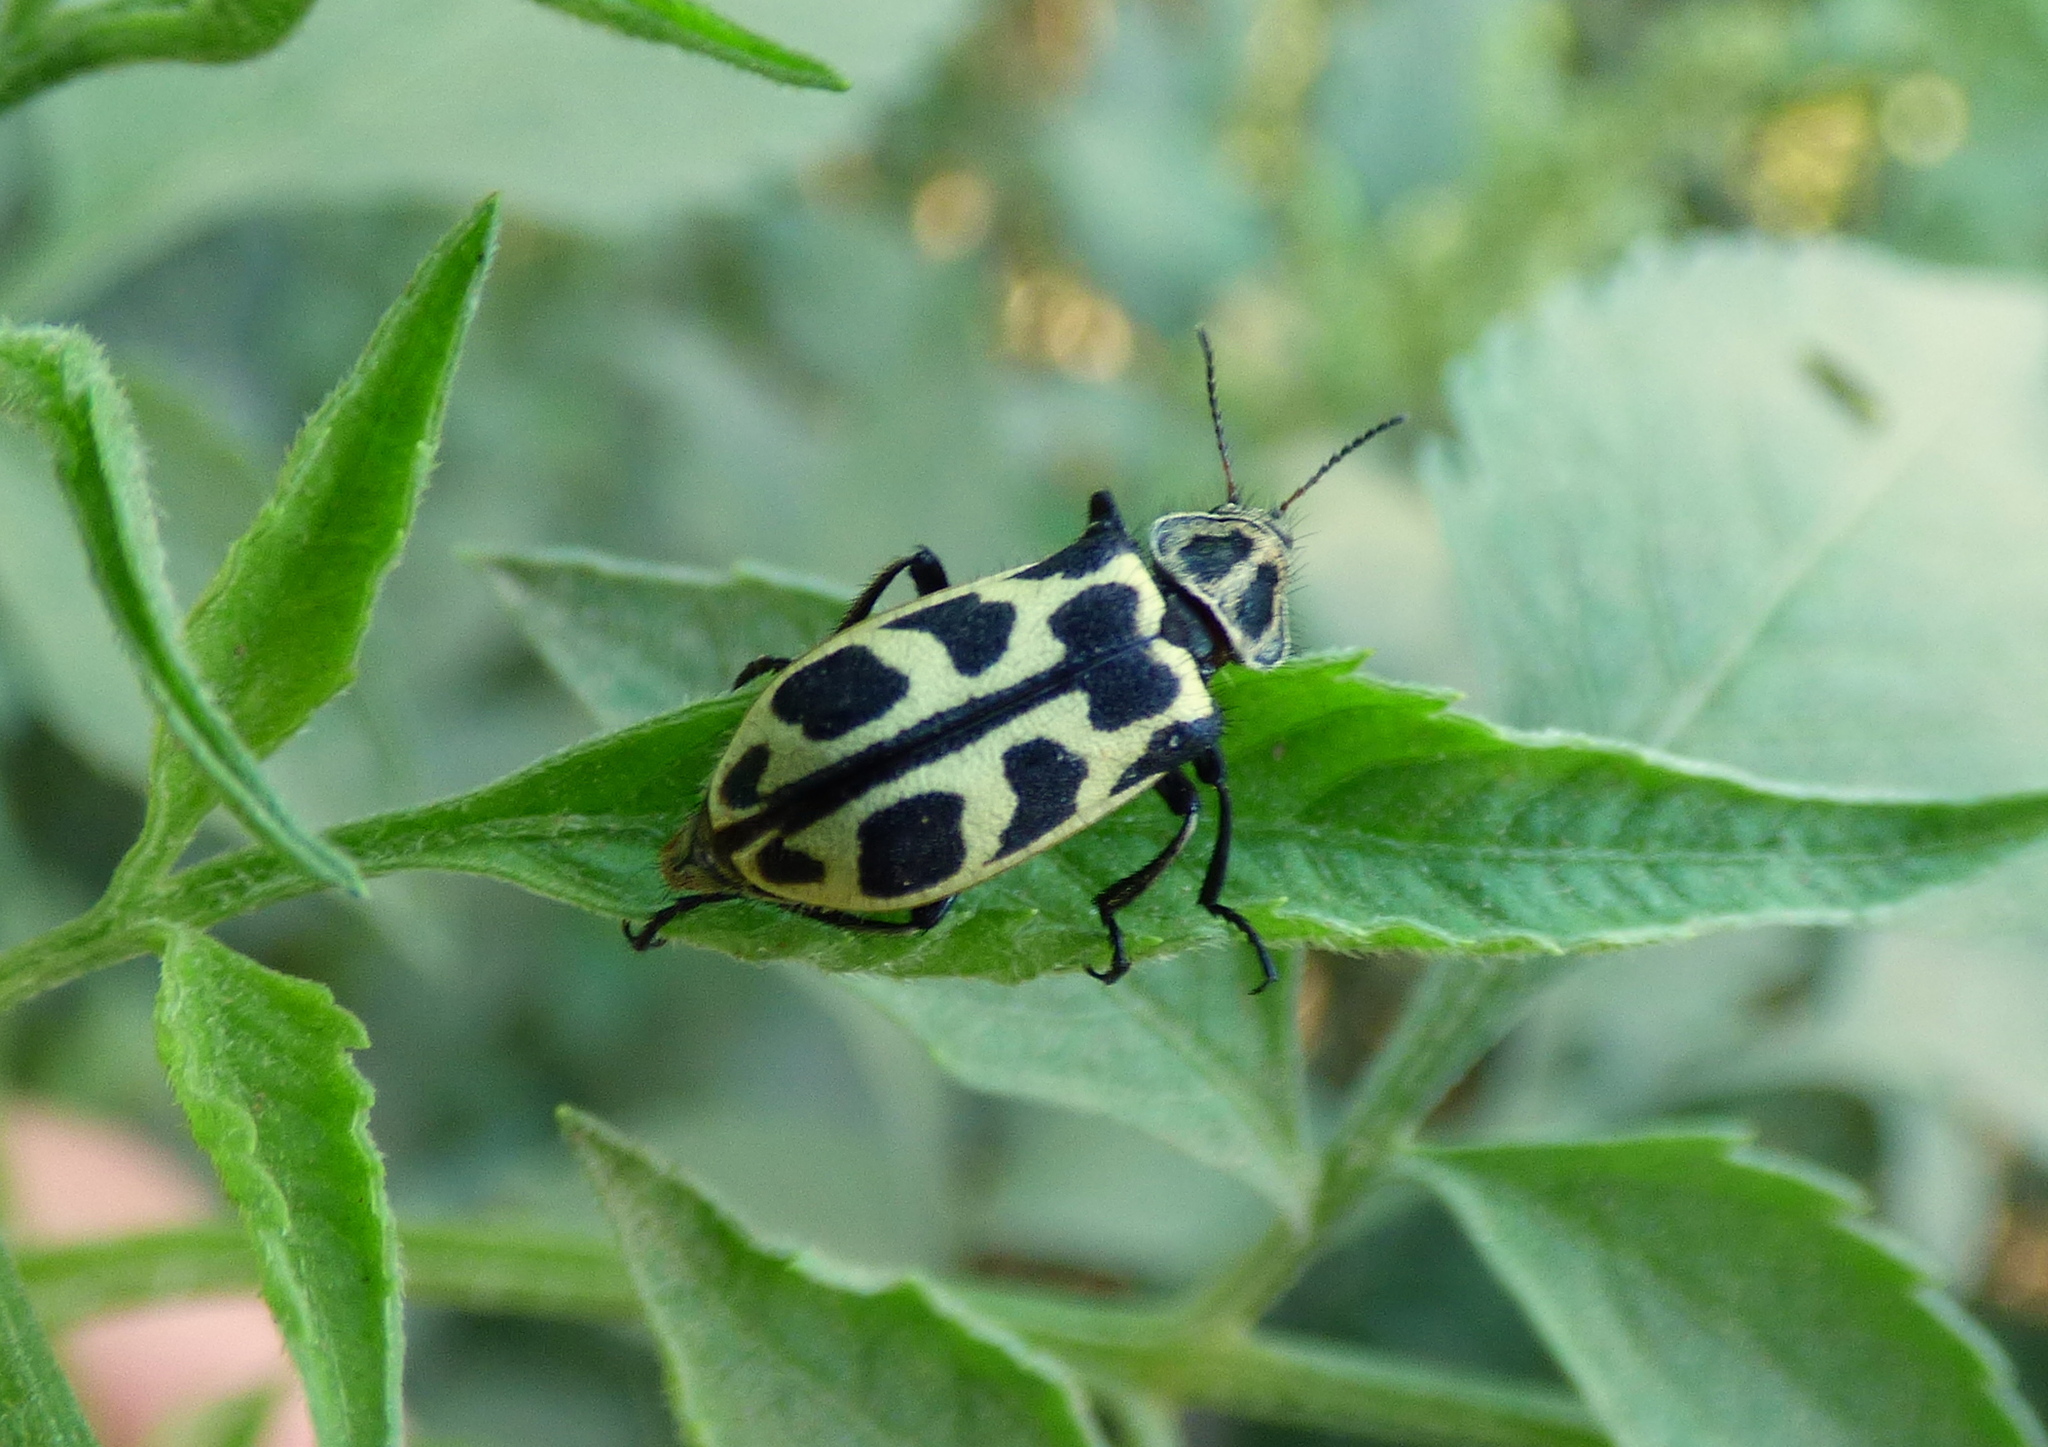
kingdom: Animalia
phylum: Arthropoda
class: Insecta
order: Coleoptera
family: Melyridae
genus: Astylus
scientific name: Astylus atromaculatus
